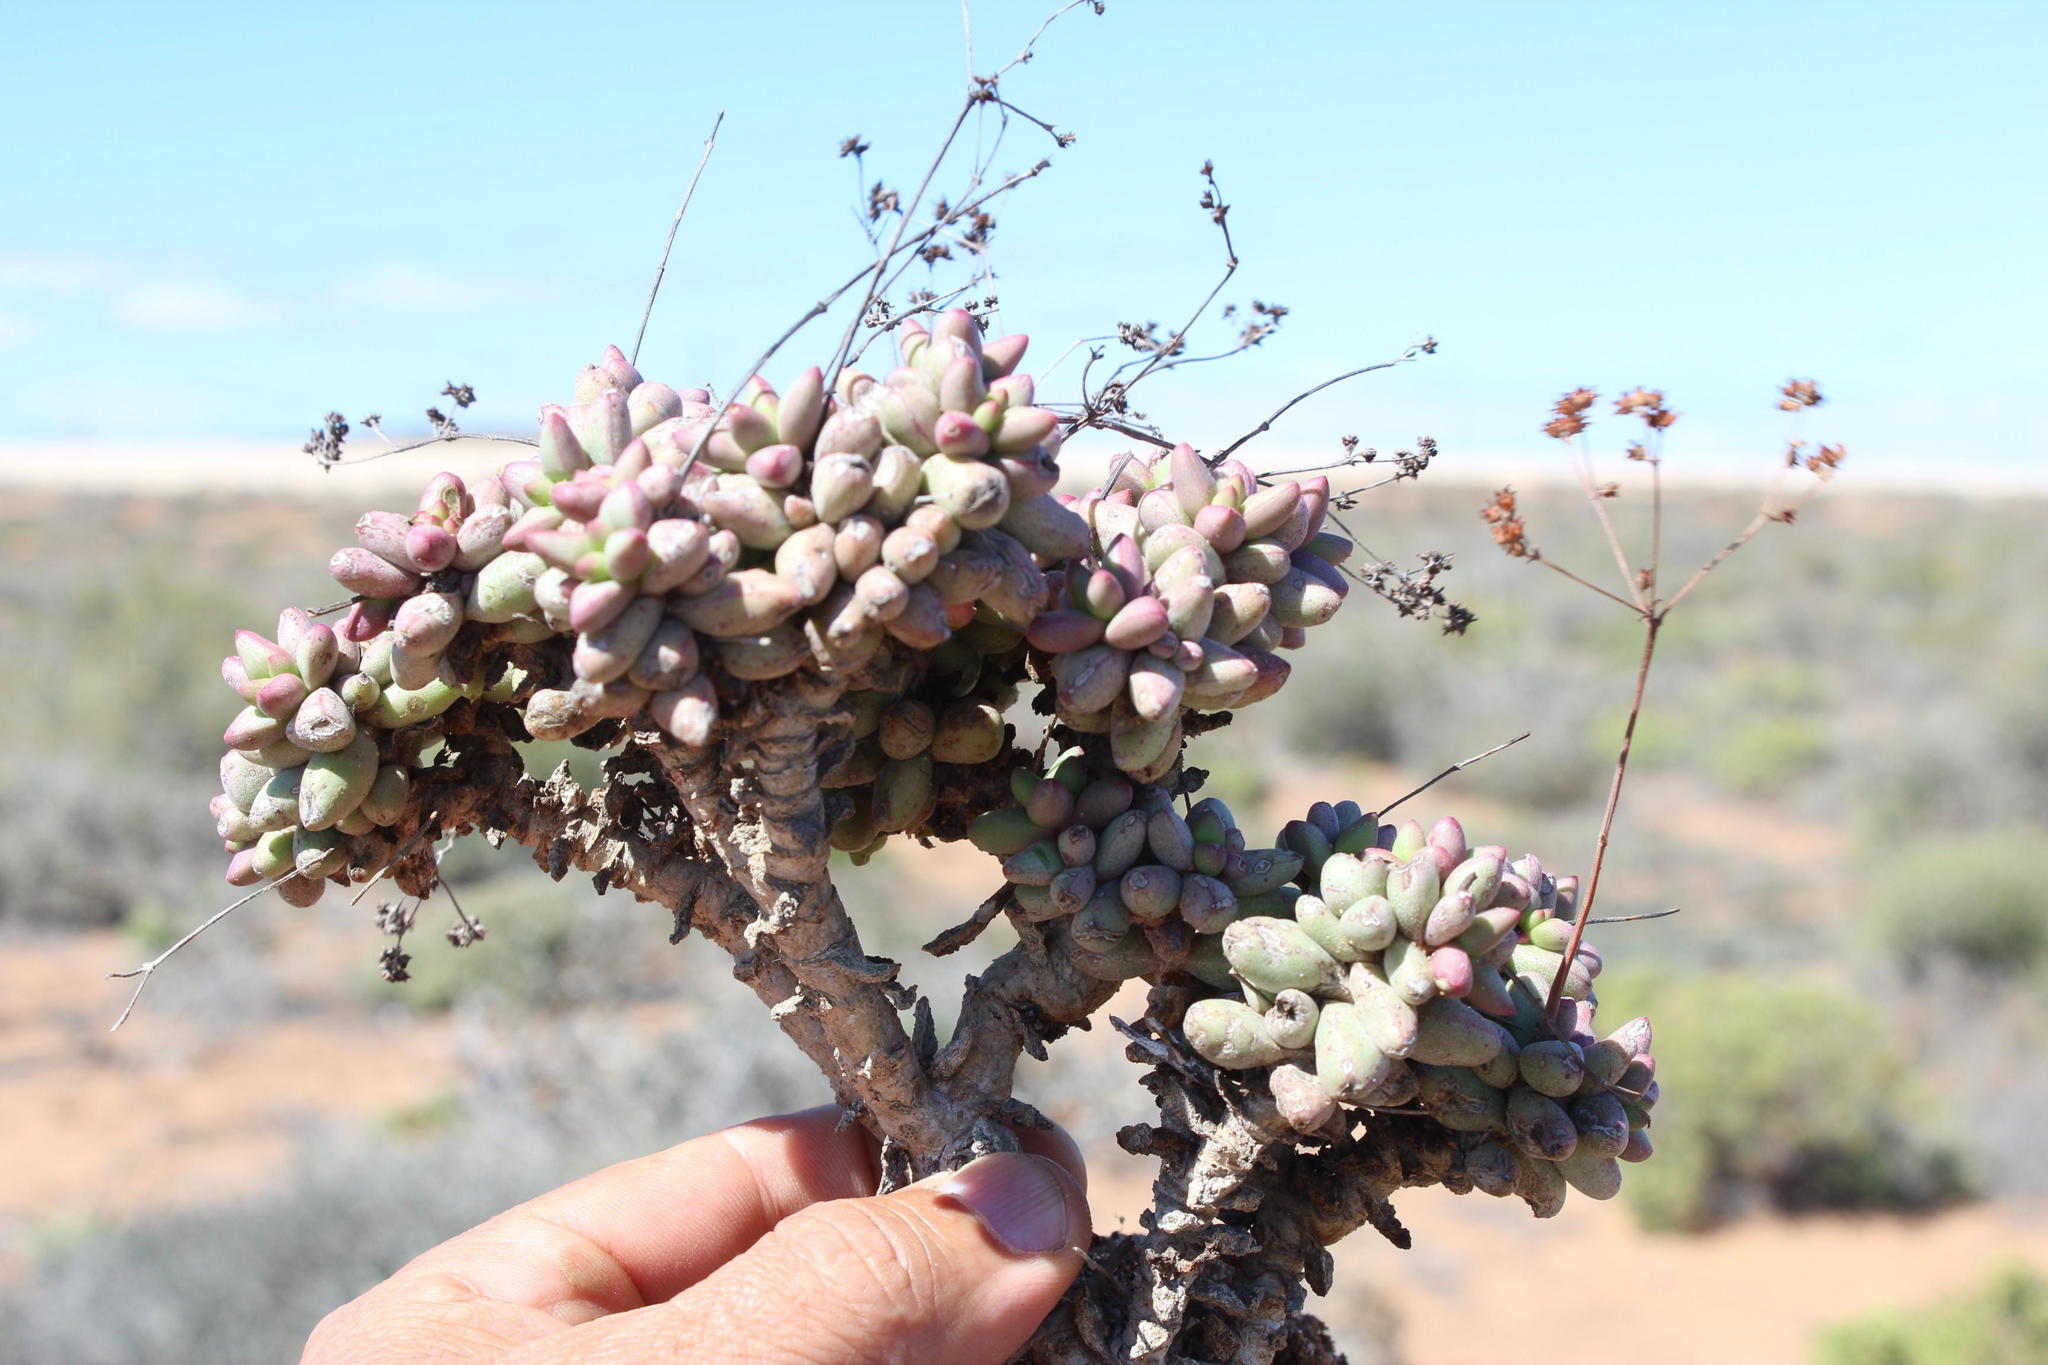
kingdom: Plantae
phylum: Tracheophyta
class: Magnoliopsida
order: Saxifragales
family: Crassulaceae
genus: Crassula
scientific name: Crassula deceptor
